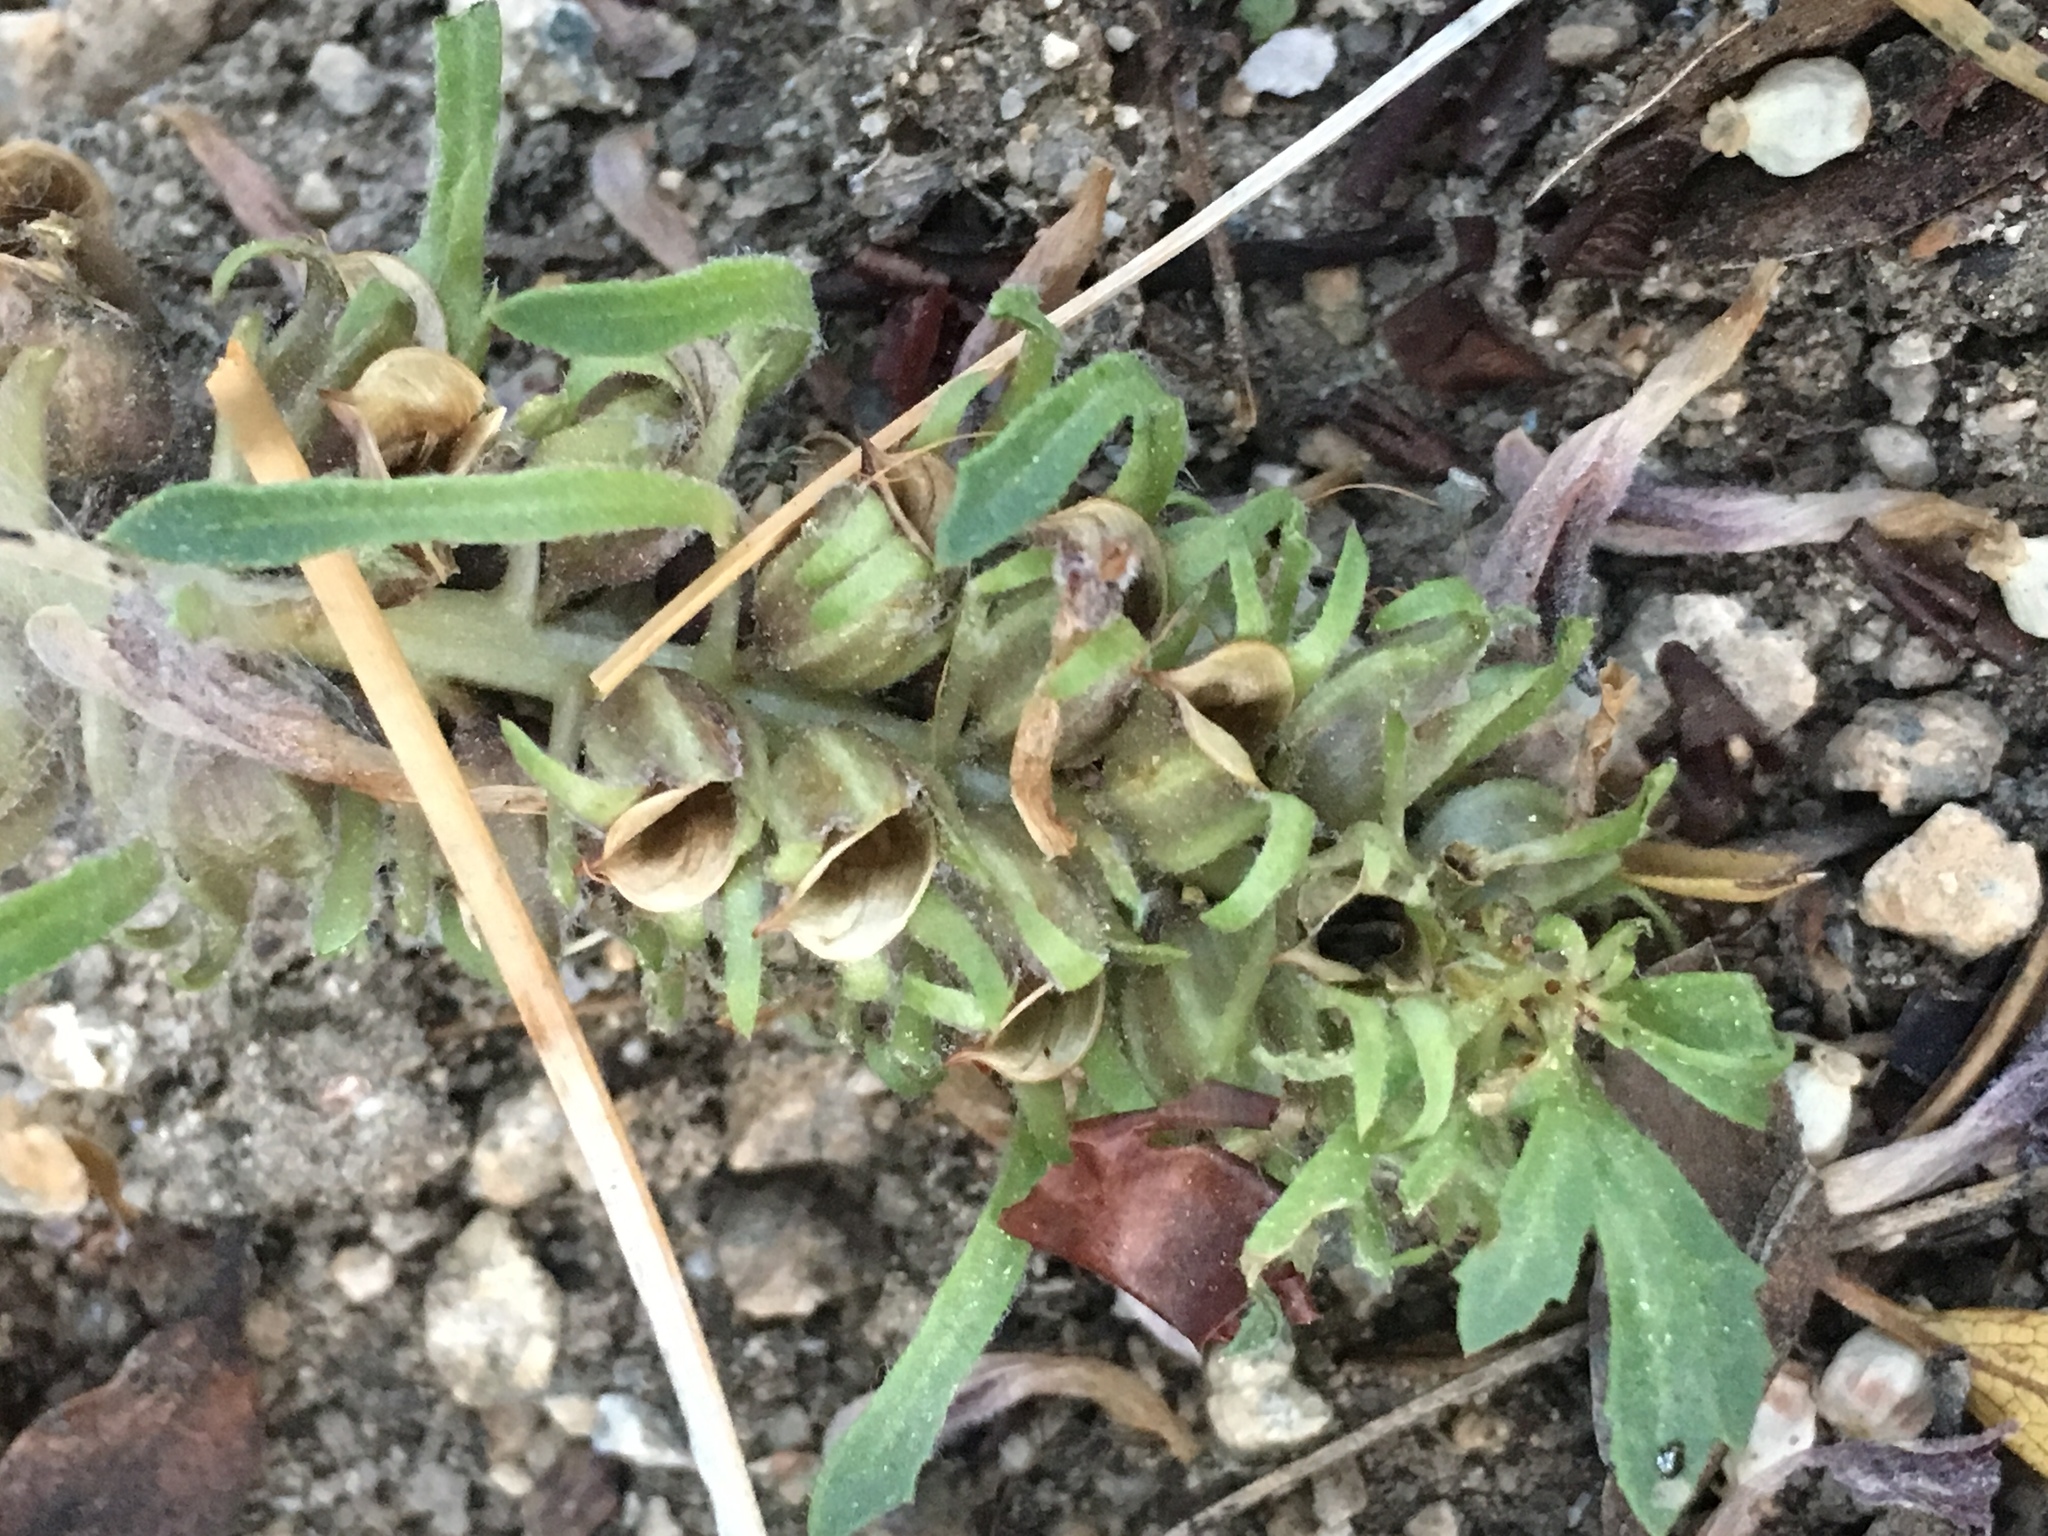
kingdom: Plantae
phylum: Tracheophyta
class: Magnoliopsida
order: Lamiales
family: Orobanchaceae
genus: Pedicularis
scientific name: Pedicularis semibarbata
